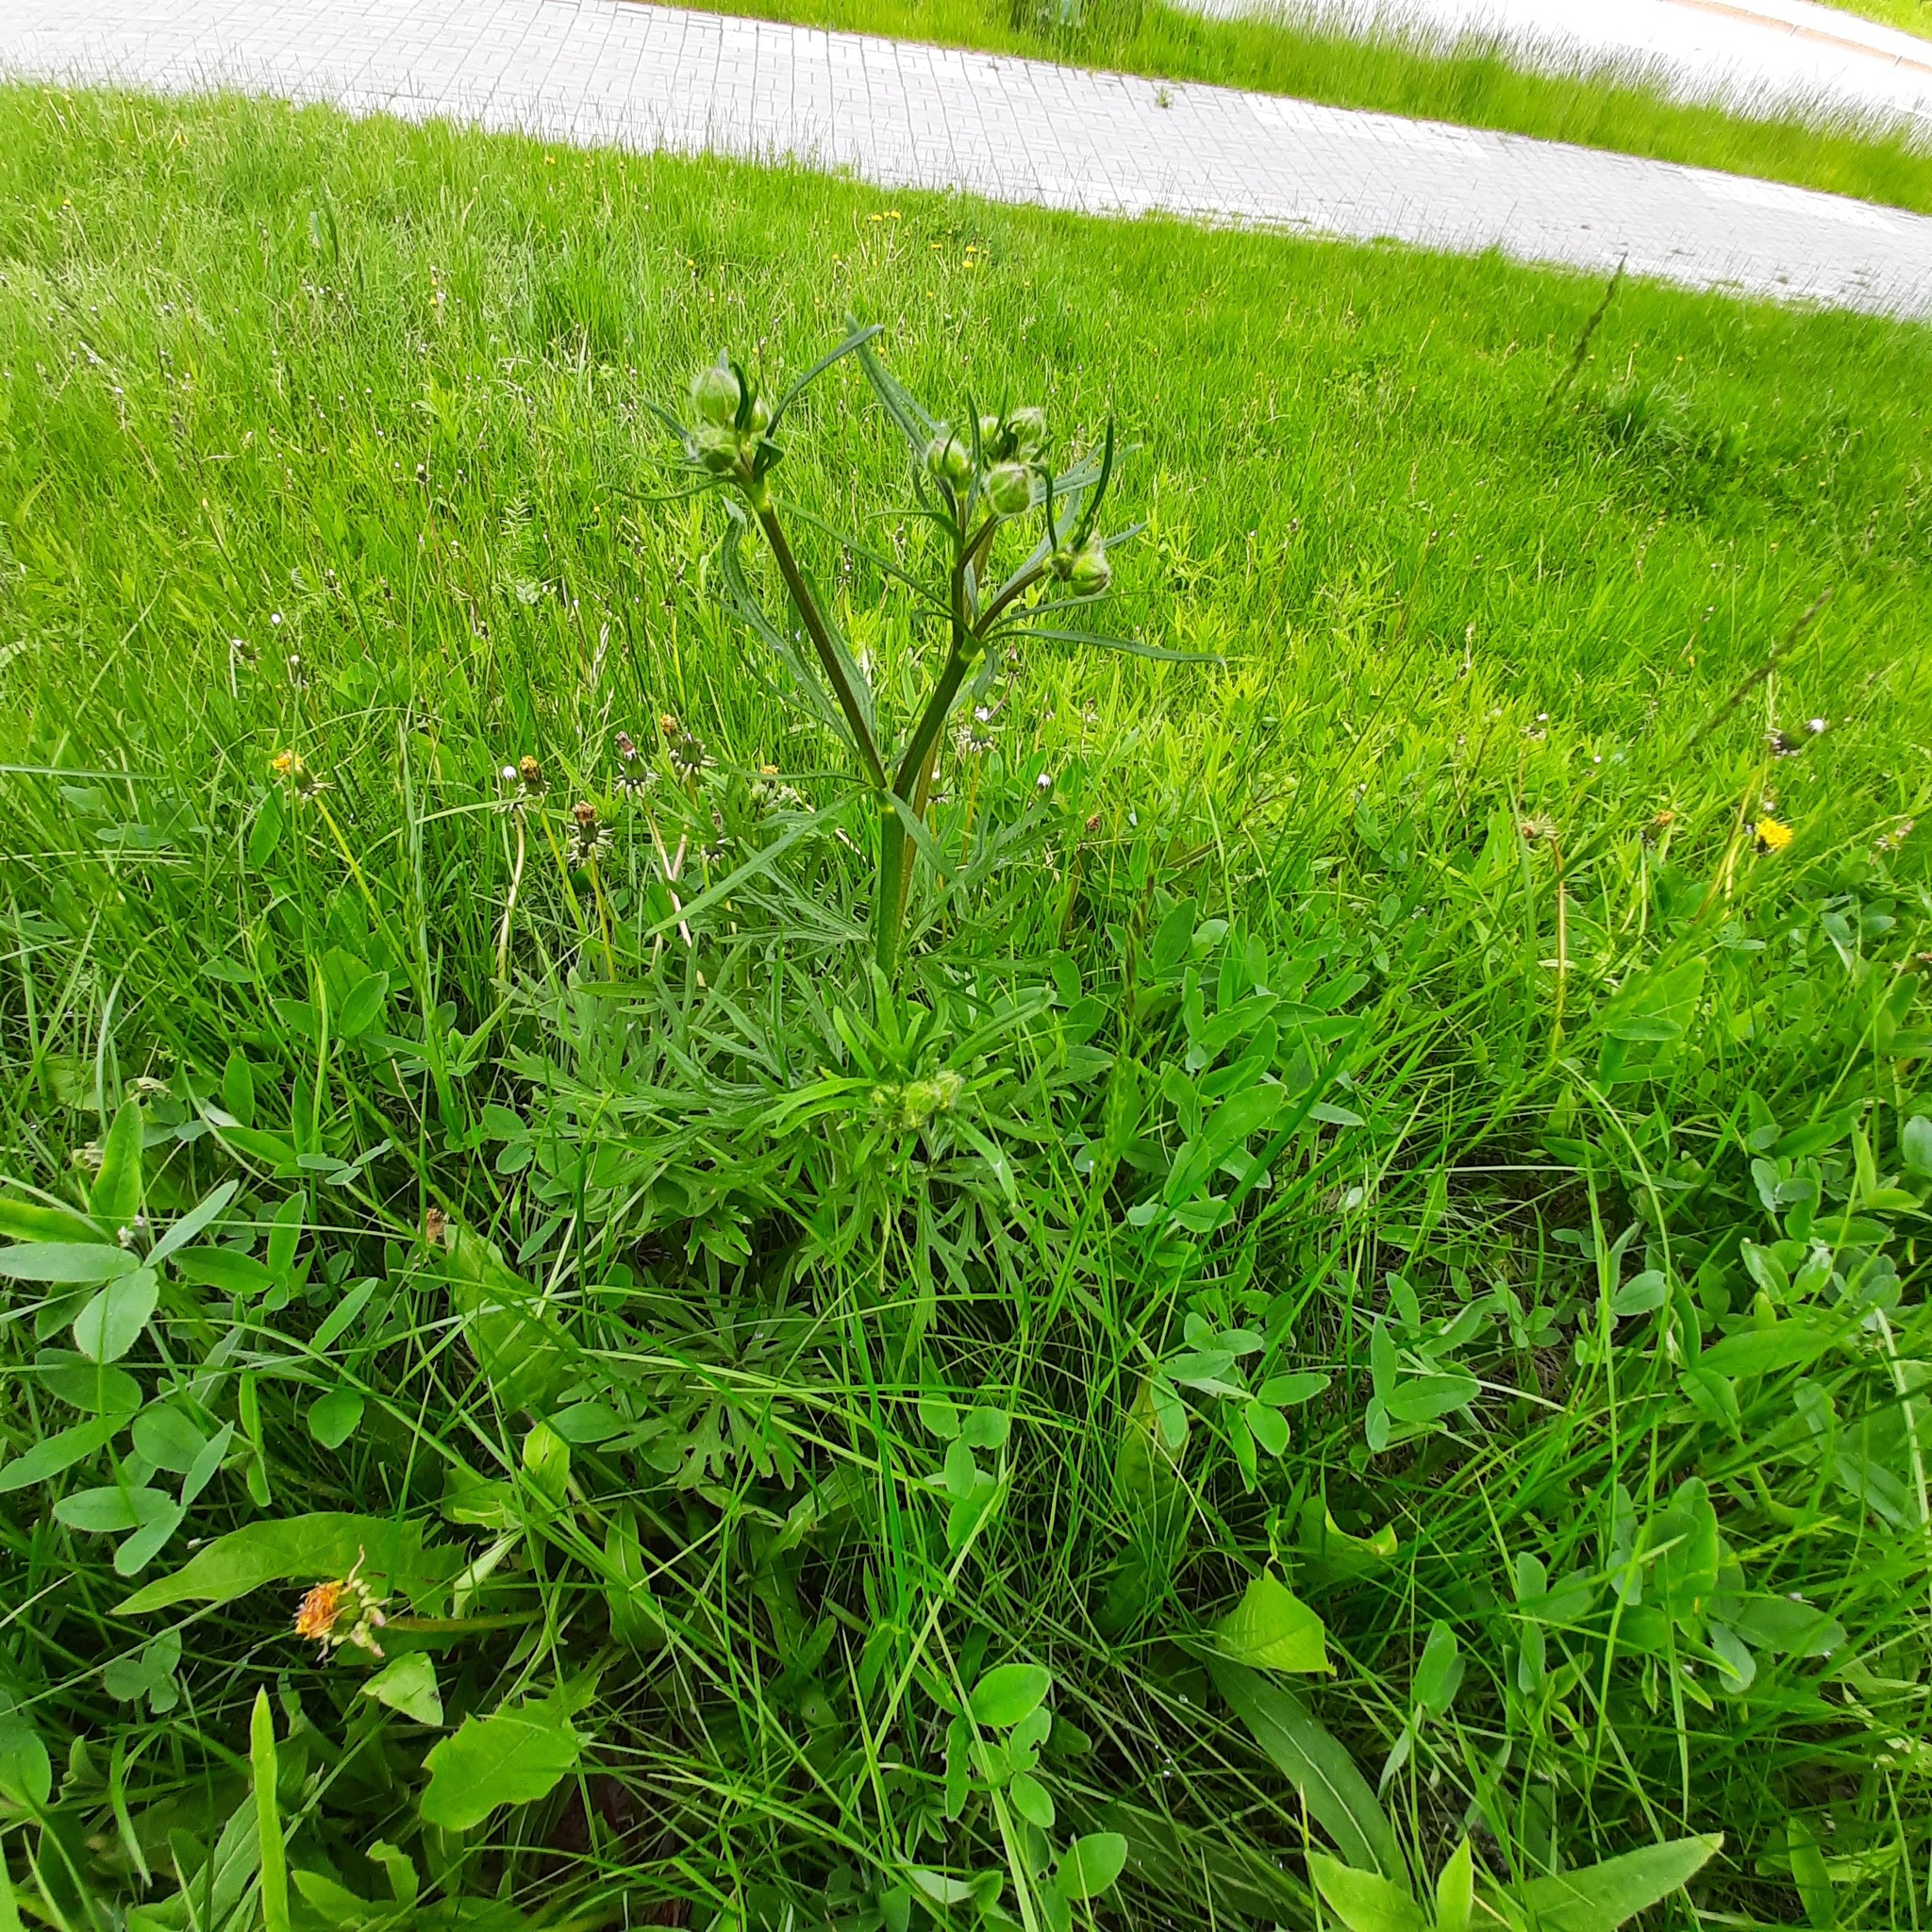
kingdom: Plantae
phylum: Tracheophyta
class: Magnoliopsida
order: Ranunculales
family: Ranunculaceae
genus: Ranunculus
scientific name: Ranunculus polyanthemos
